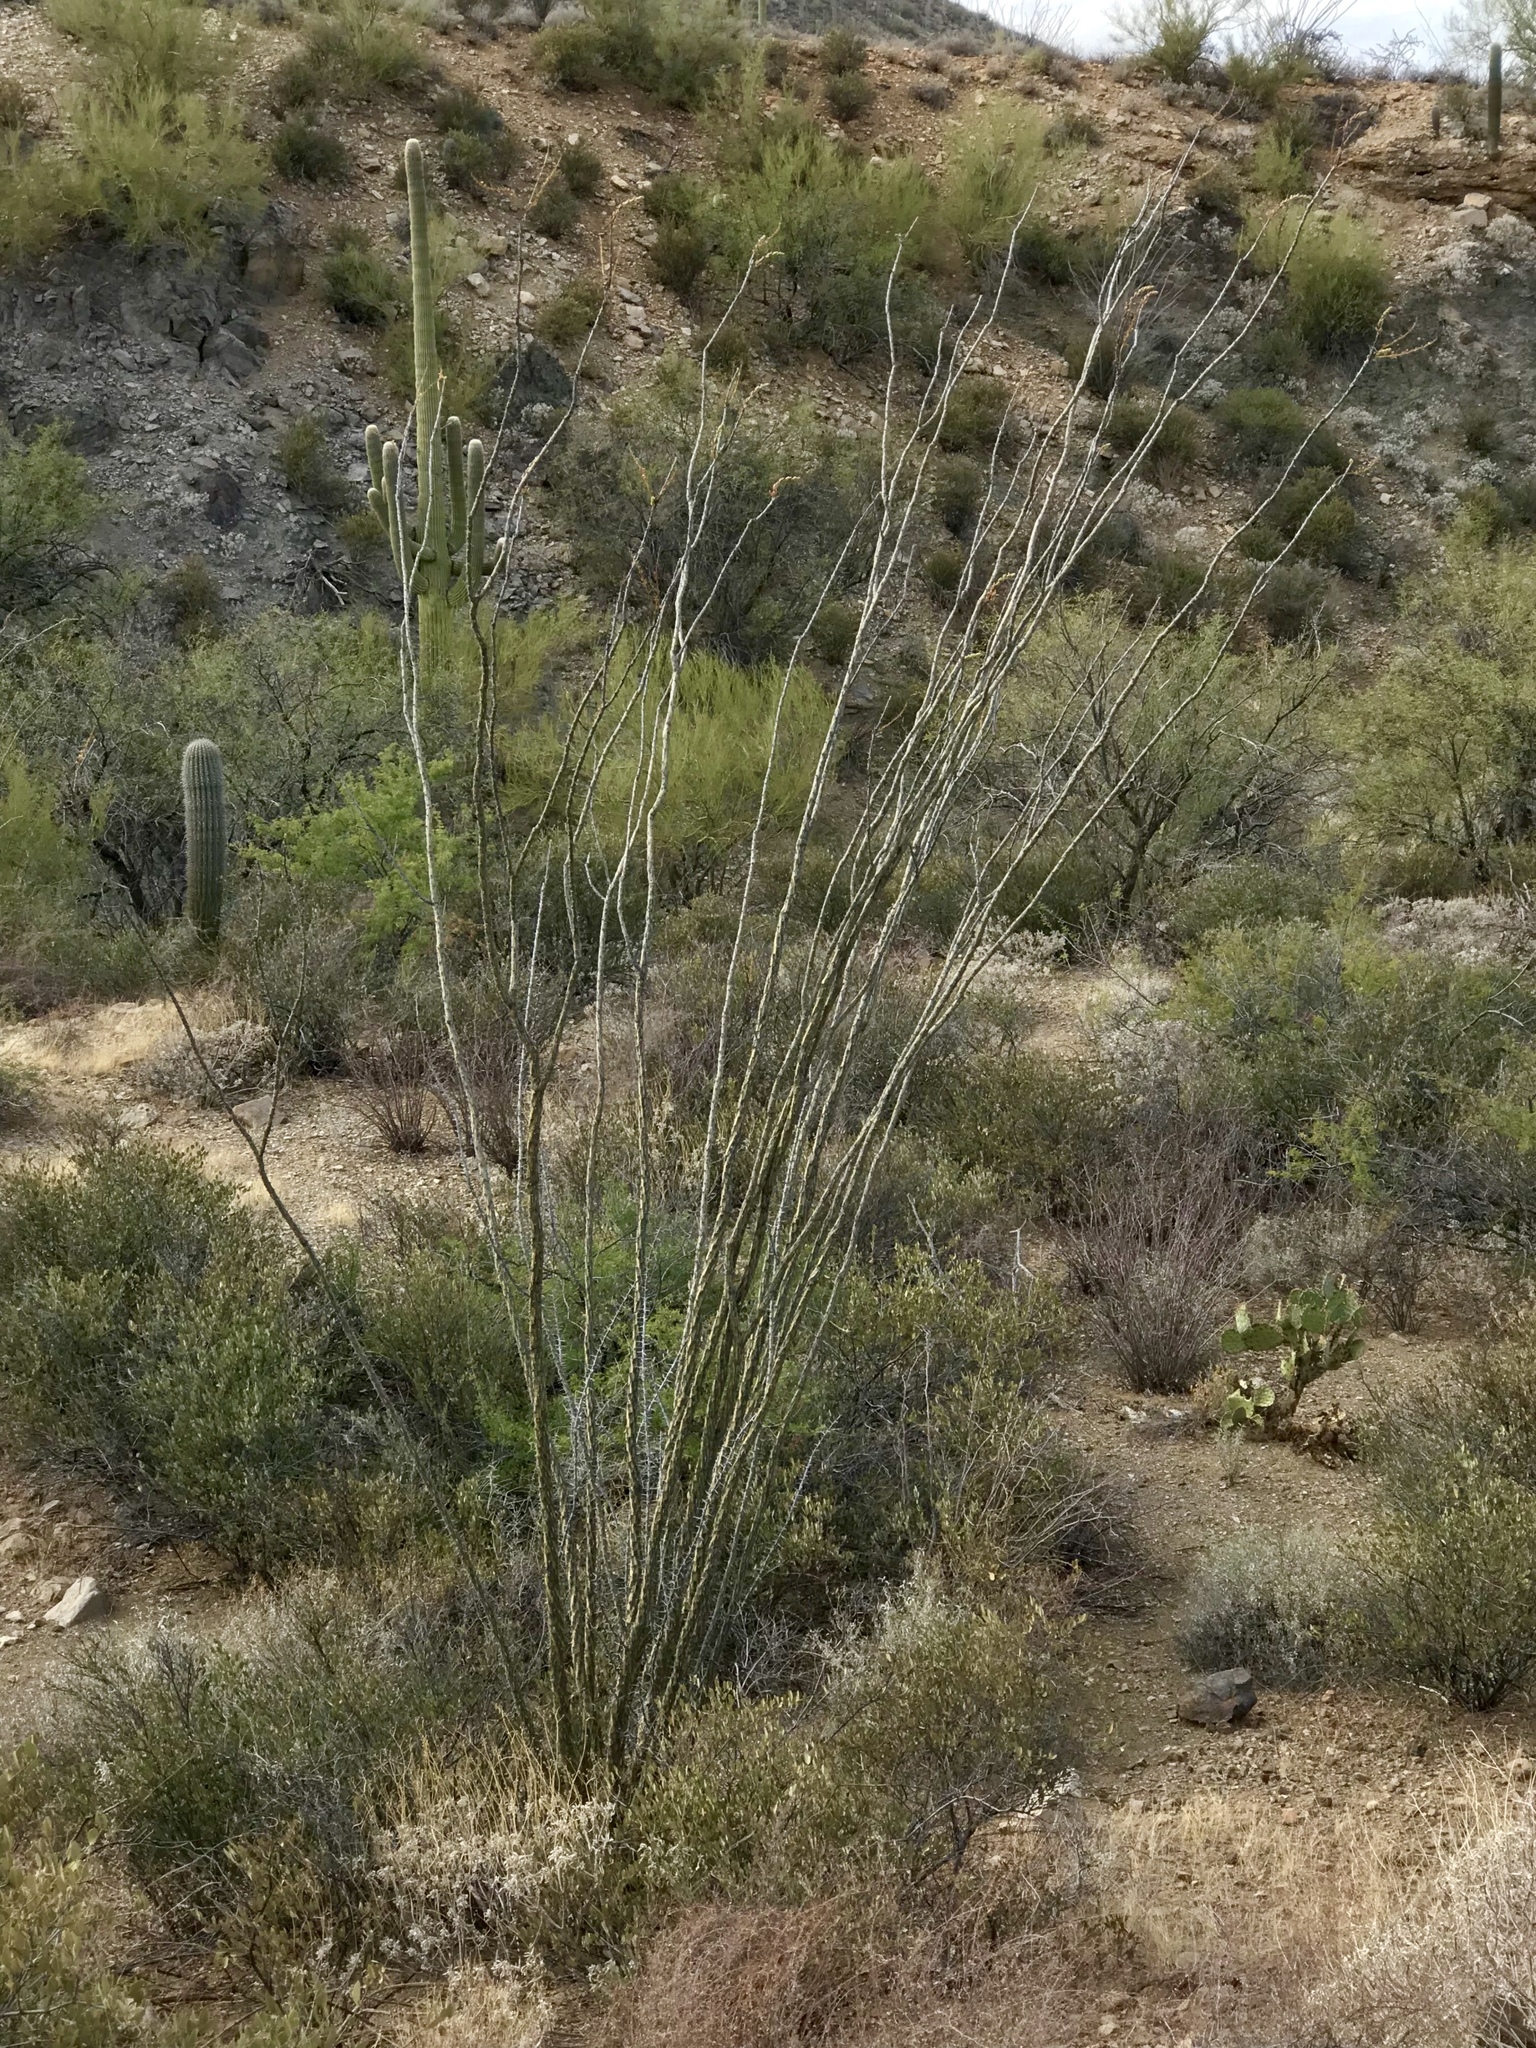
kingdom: Plantae
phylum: Tracheophyta
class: Magnoliopsida
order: Ericales
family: Fouquieriaceae
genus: Fouquieria
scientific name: Fouquieria splendens
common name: Vine-cactus
